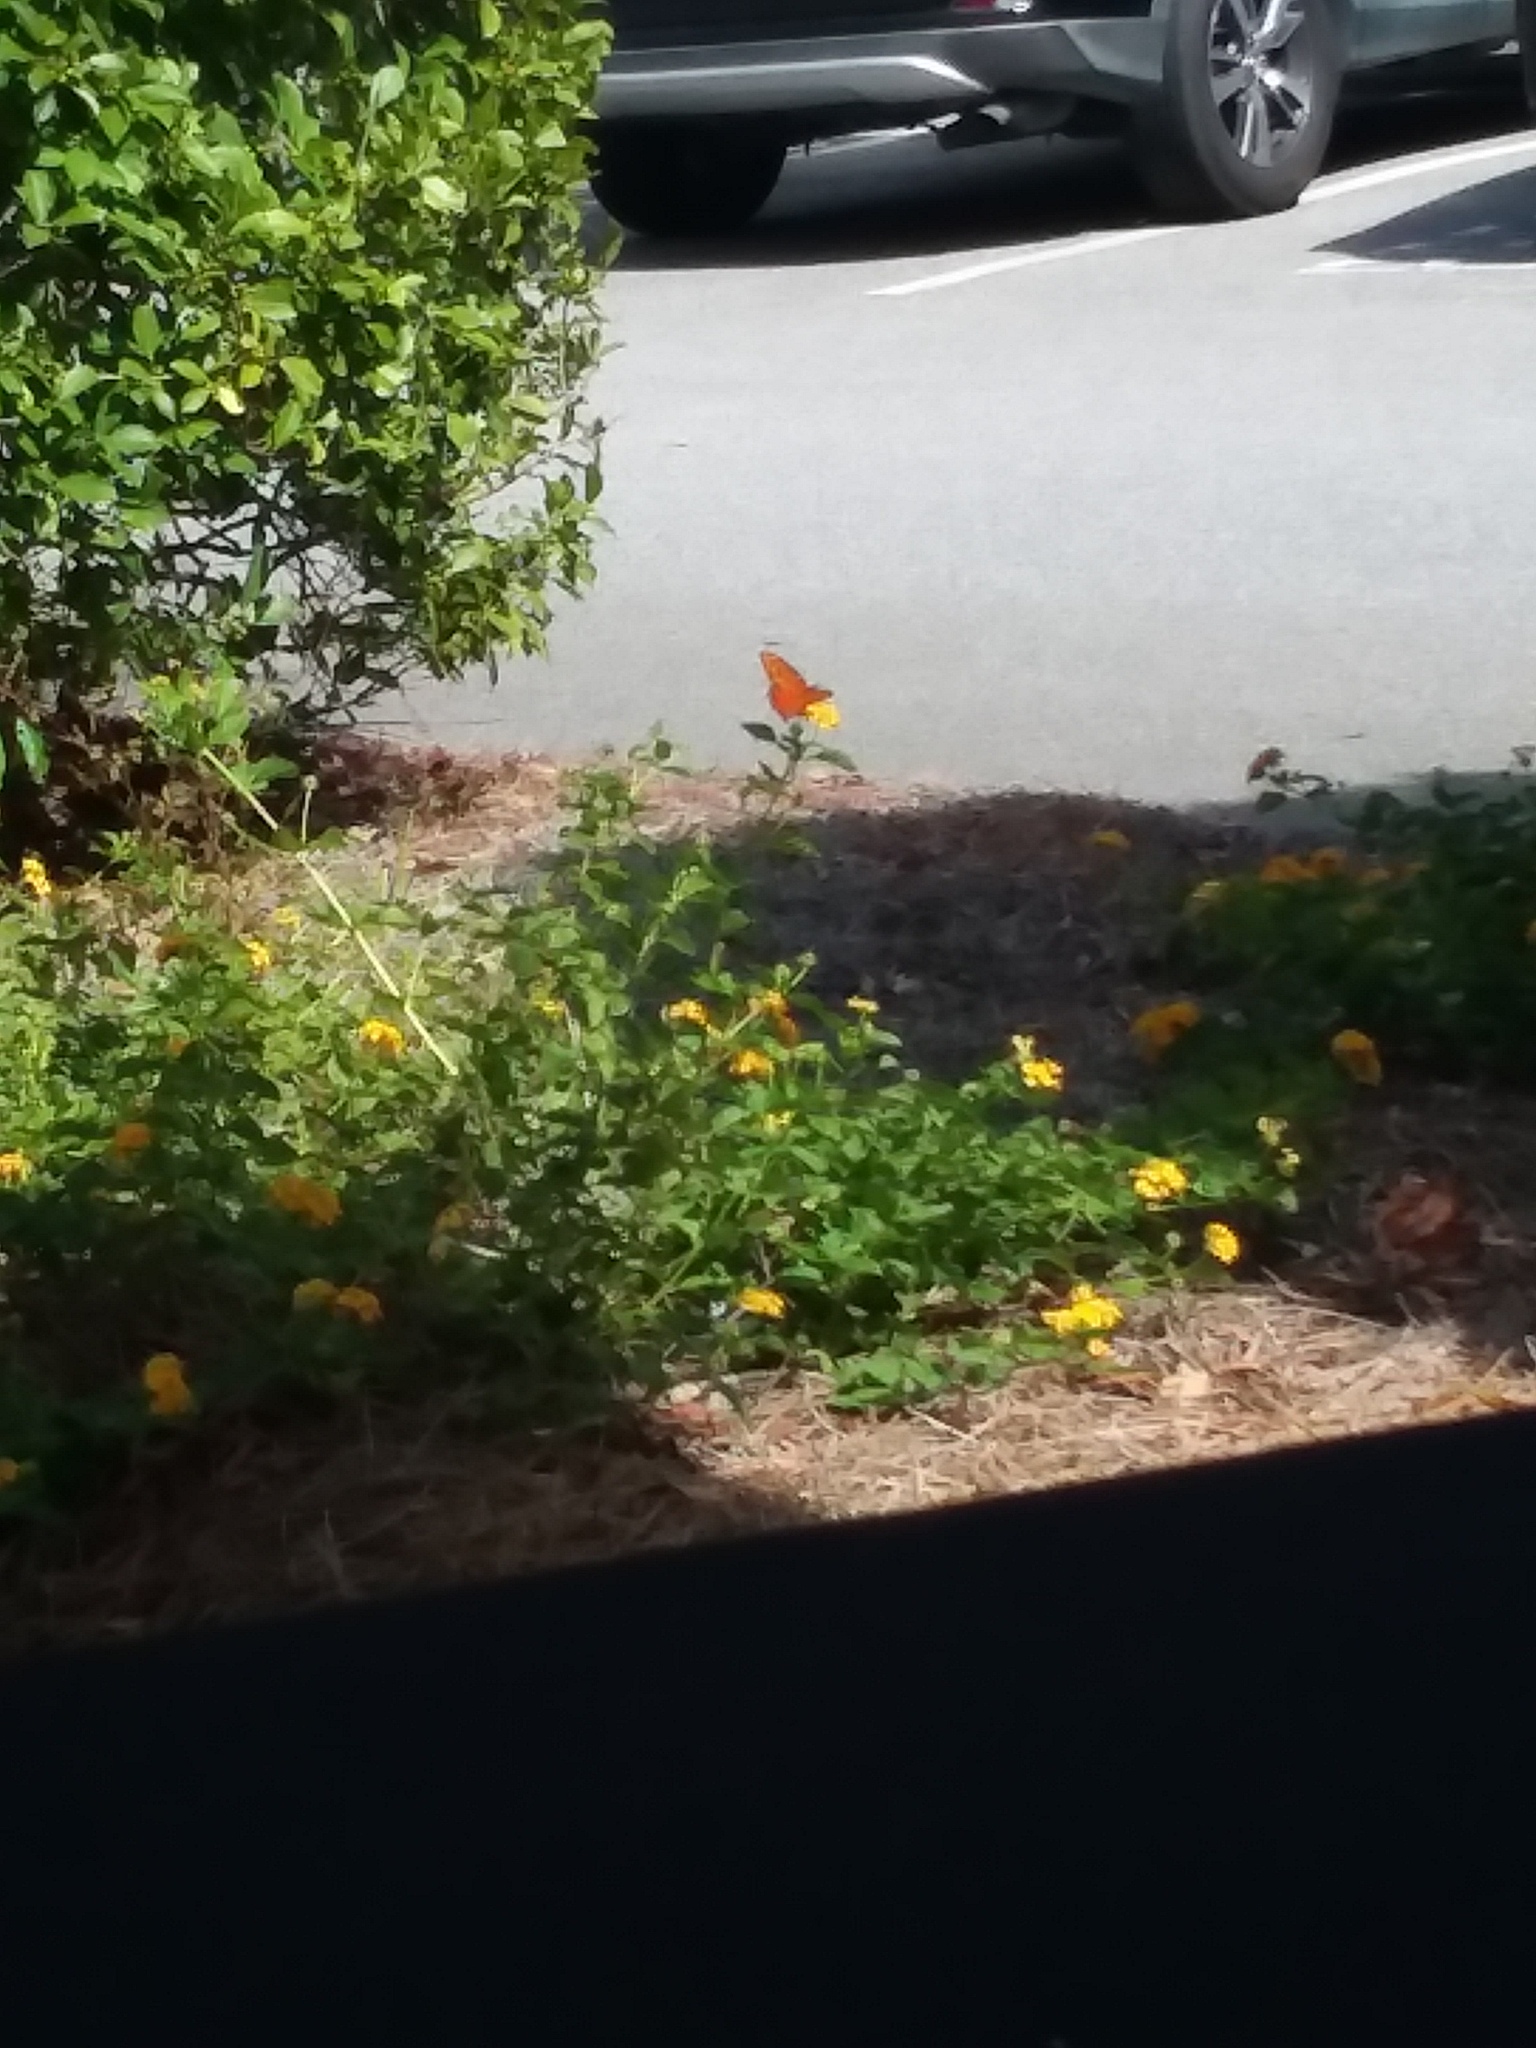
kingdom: Animalia
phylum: Arthropoda
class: Insecta
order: Lepidoptera
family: Nymphalidae
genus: Dione
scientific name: Dione vanillae
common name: Gulf fritillary
